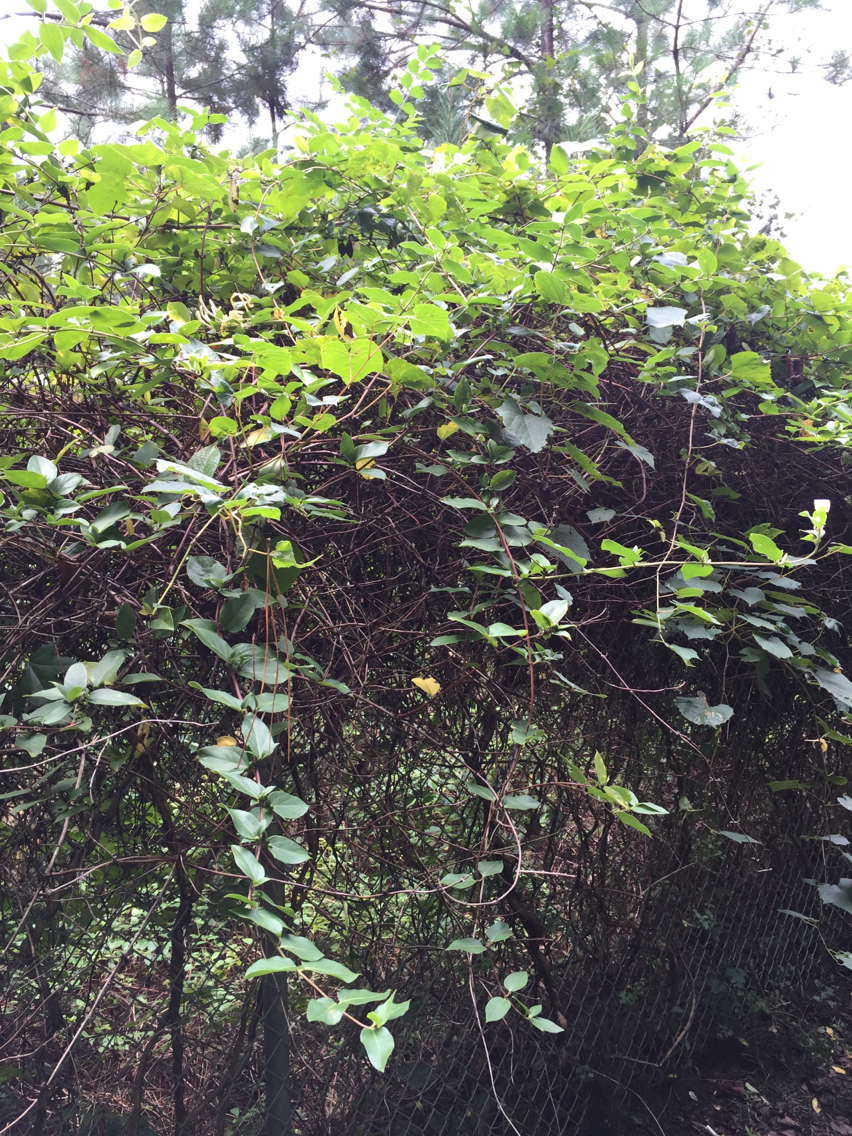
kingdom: Plantae
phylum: Tracheophyta
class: Magnoliopsida
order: Dipsacales
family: Caprifoliaceae
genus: Lonicera
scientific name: Lonicera japonica
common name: Japanese honeysuckle
